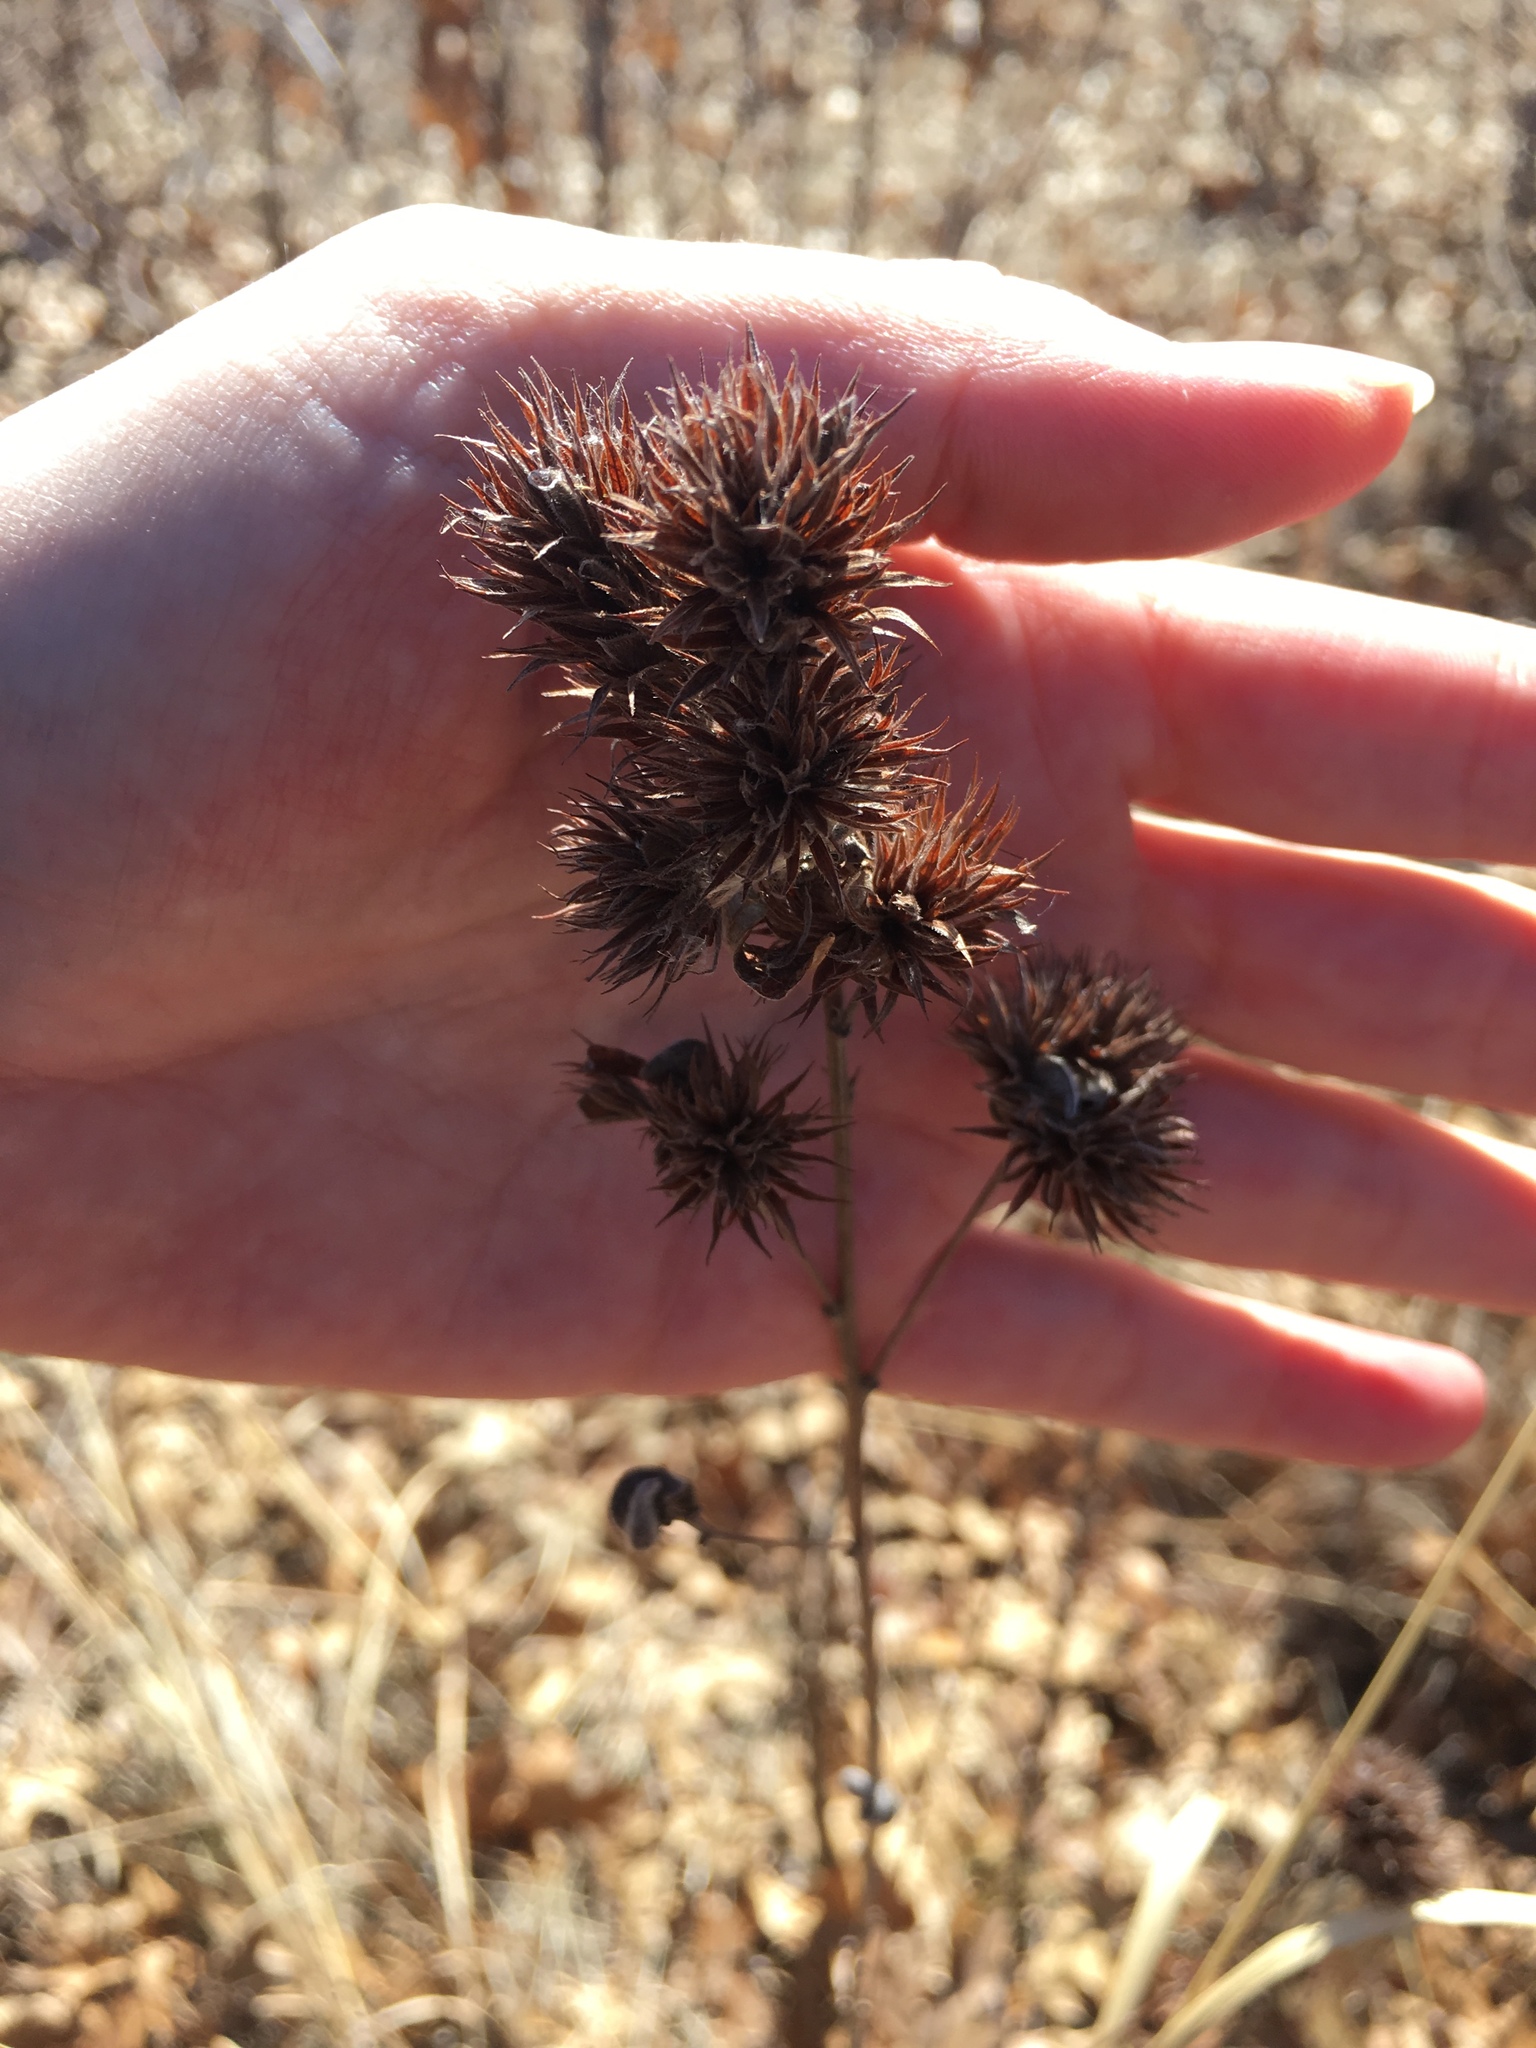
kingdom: Plantae
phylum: Tracheophyta
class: Magnoliopsida
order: Fabales
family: Fabaceae
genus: Lespedeza
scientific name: Lespedeza capitata
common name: Dusty clover
